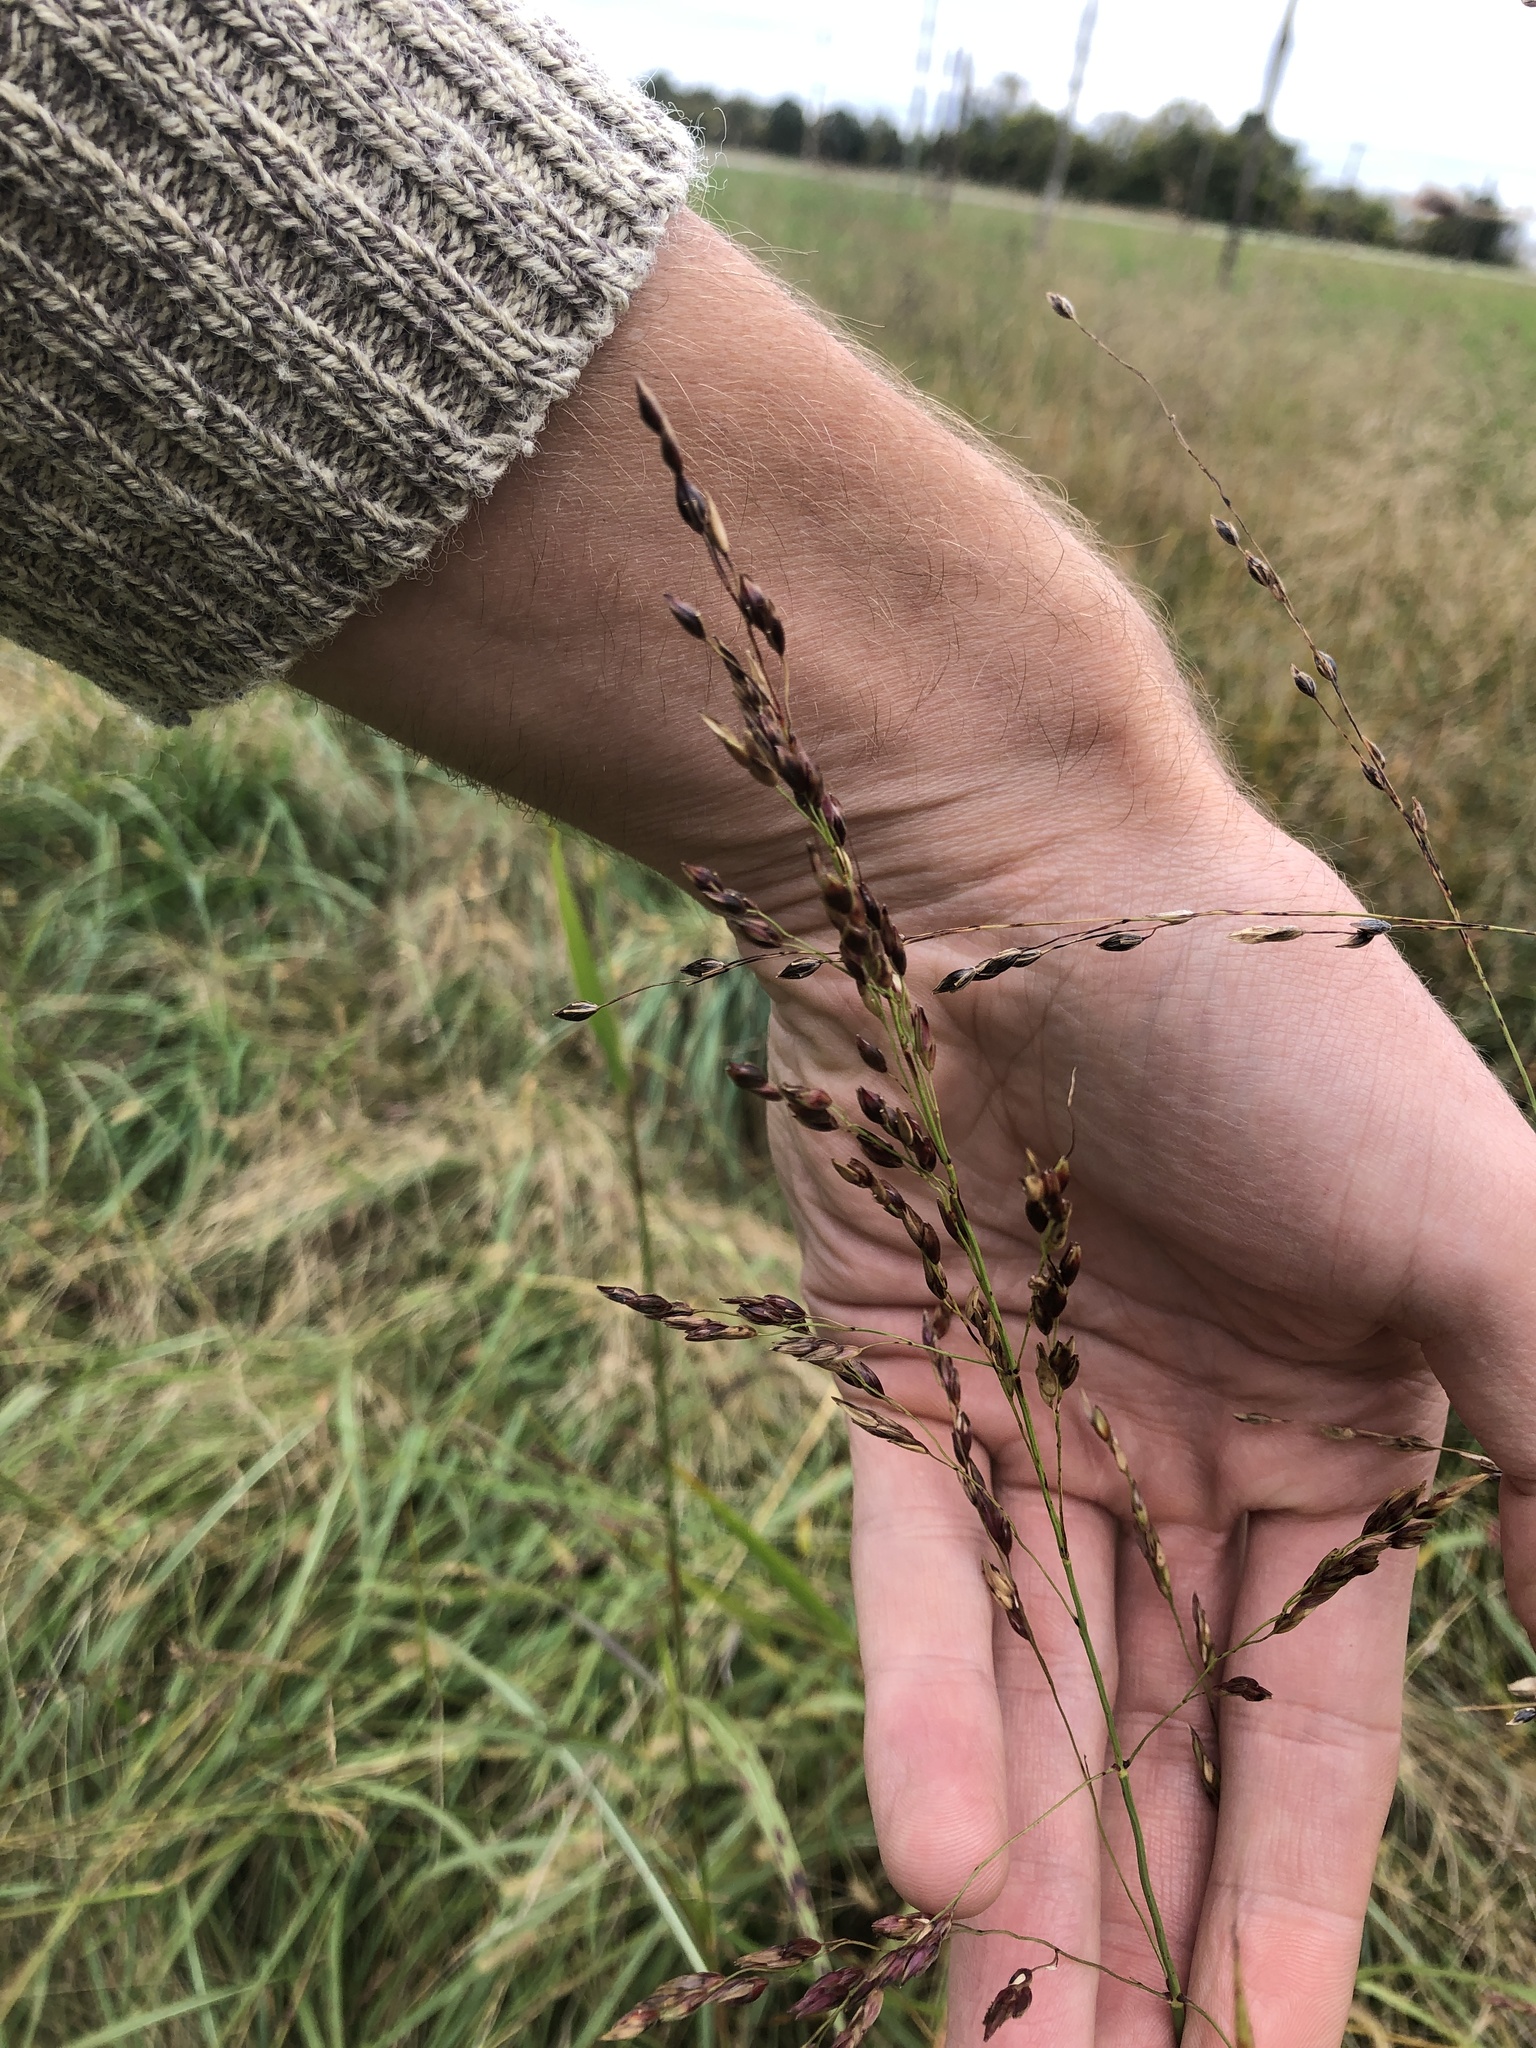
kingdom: Plantae
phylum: Tracheophyta
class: Liliopsida
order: Poales
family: Poaceae
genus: Sorghum
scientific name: Sorghum halepense
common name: Johnson-grass
